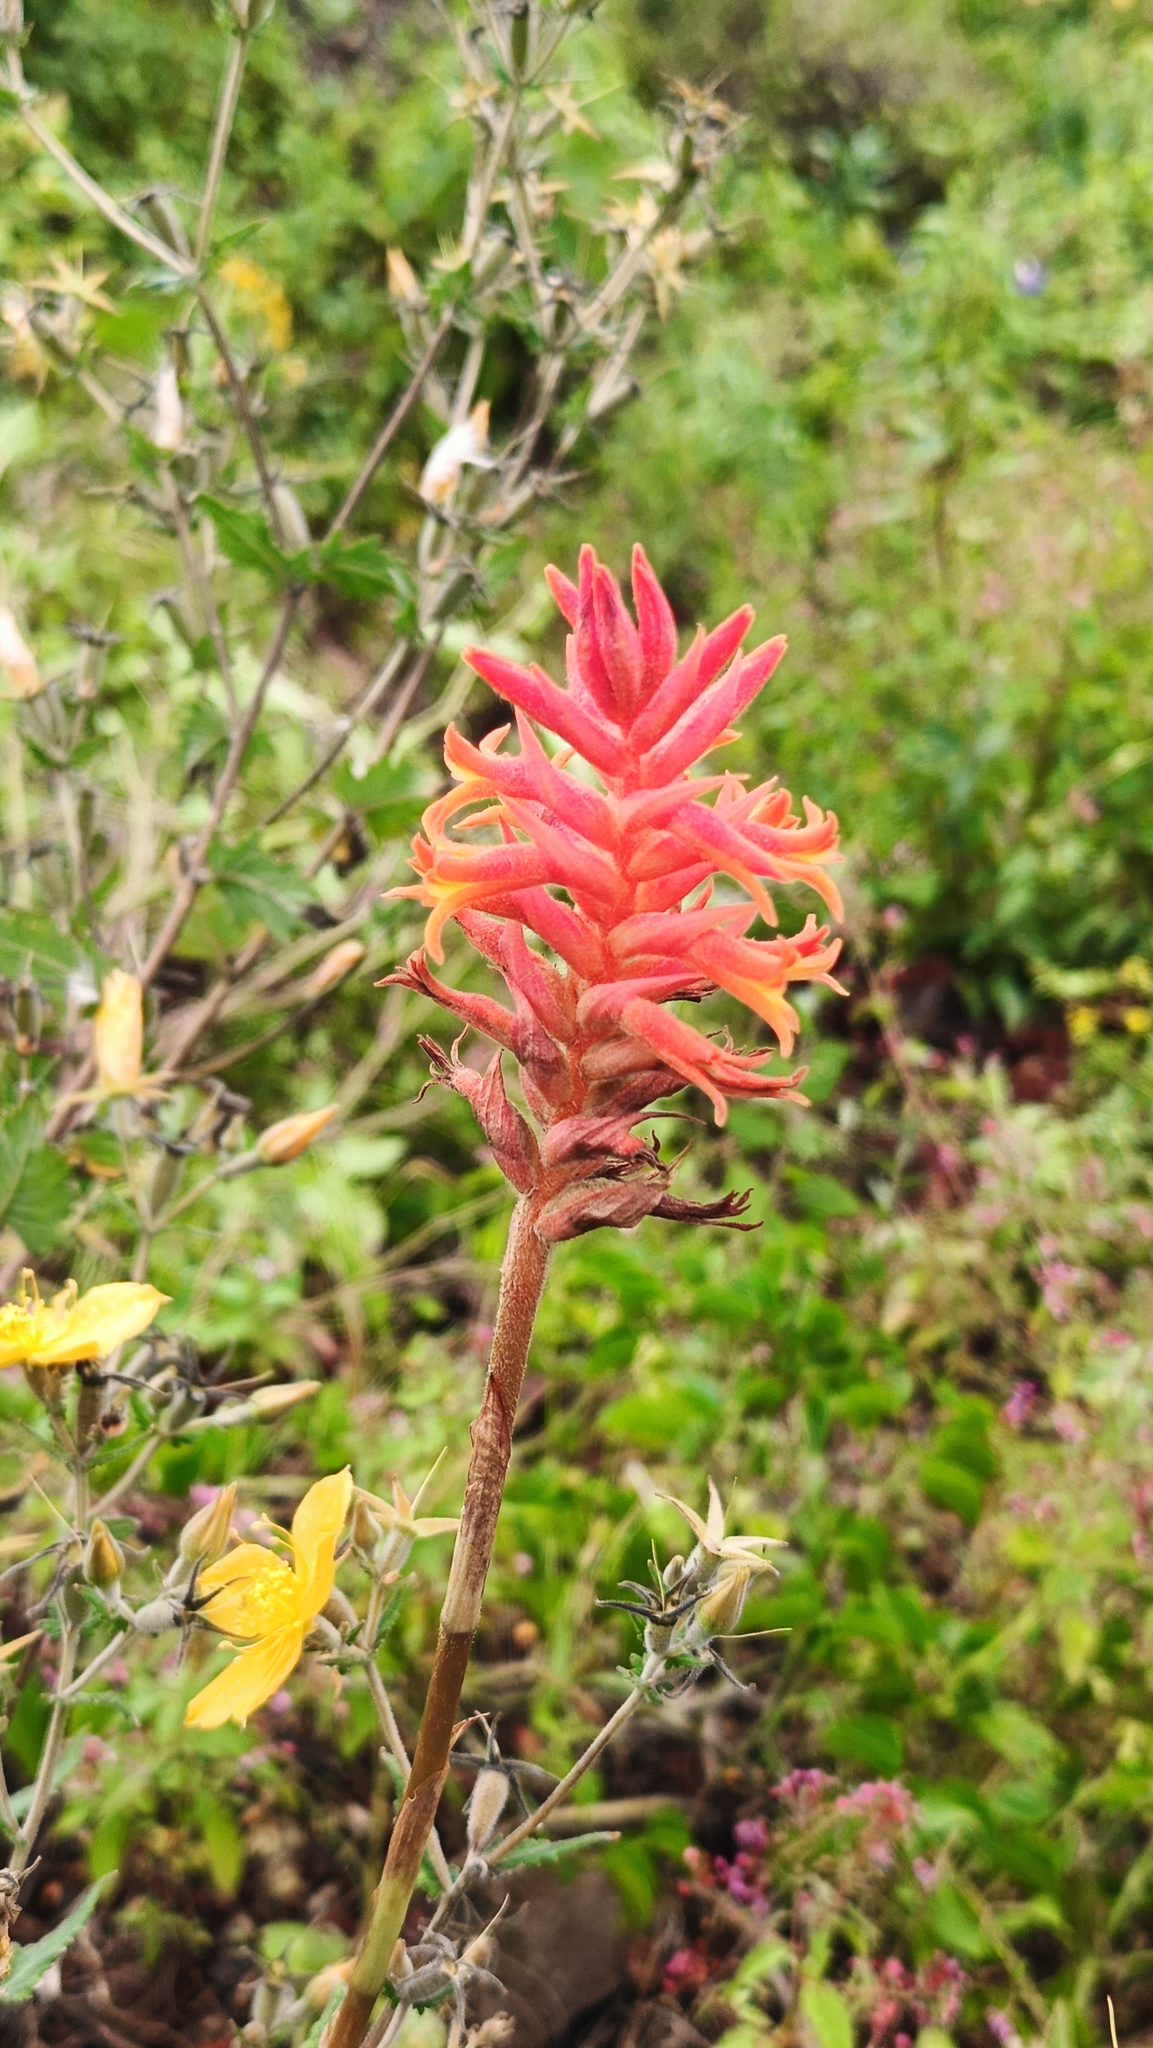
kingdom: Plantae
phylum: Tracheophyta
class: Liliopsida
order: Asparagales
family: Orchidaceae
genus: Dichromanthus
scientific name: Dichromanthus cinnabarinus
